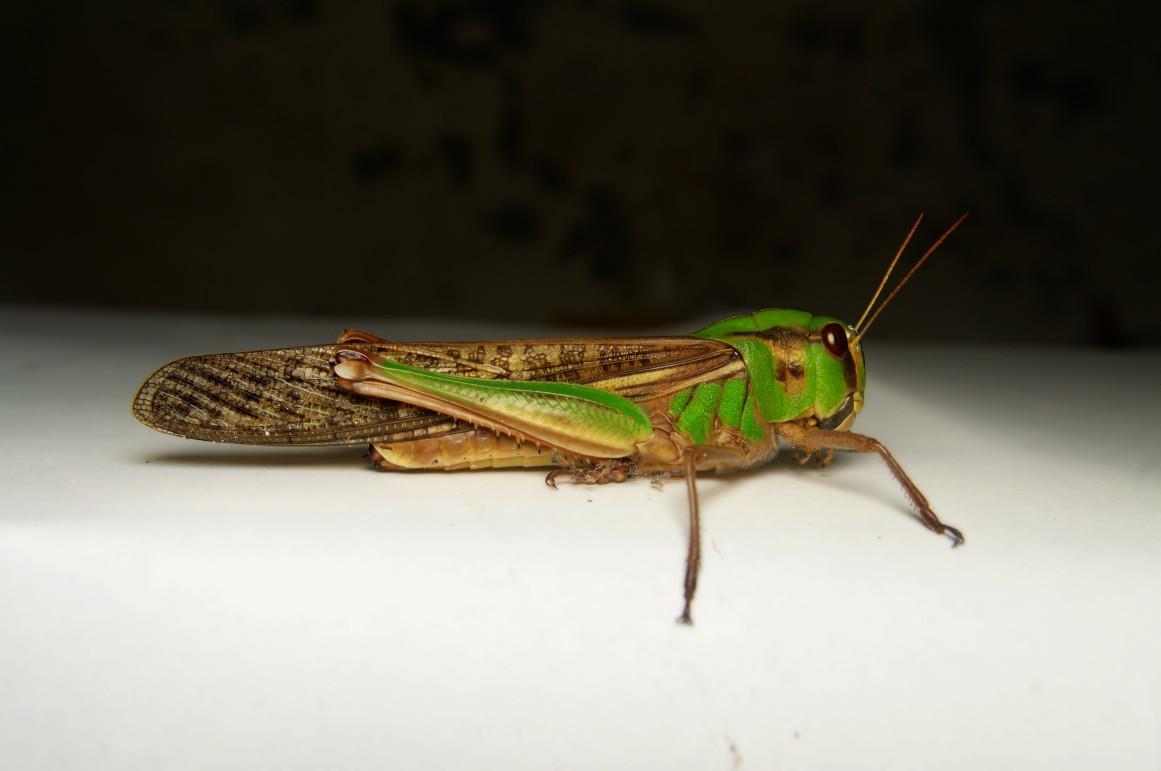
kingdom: Animalia
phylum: Arthropoda
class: Insecta
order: Orthoptera
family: Acrididae
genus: Locusta
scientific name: Locusta migratoria
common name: Migratory locust
